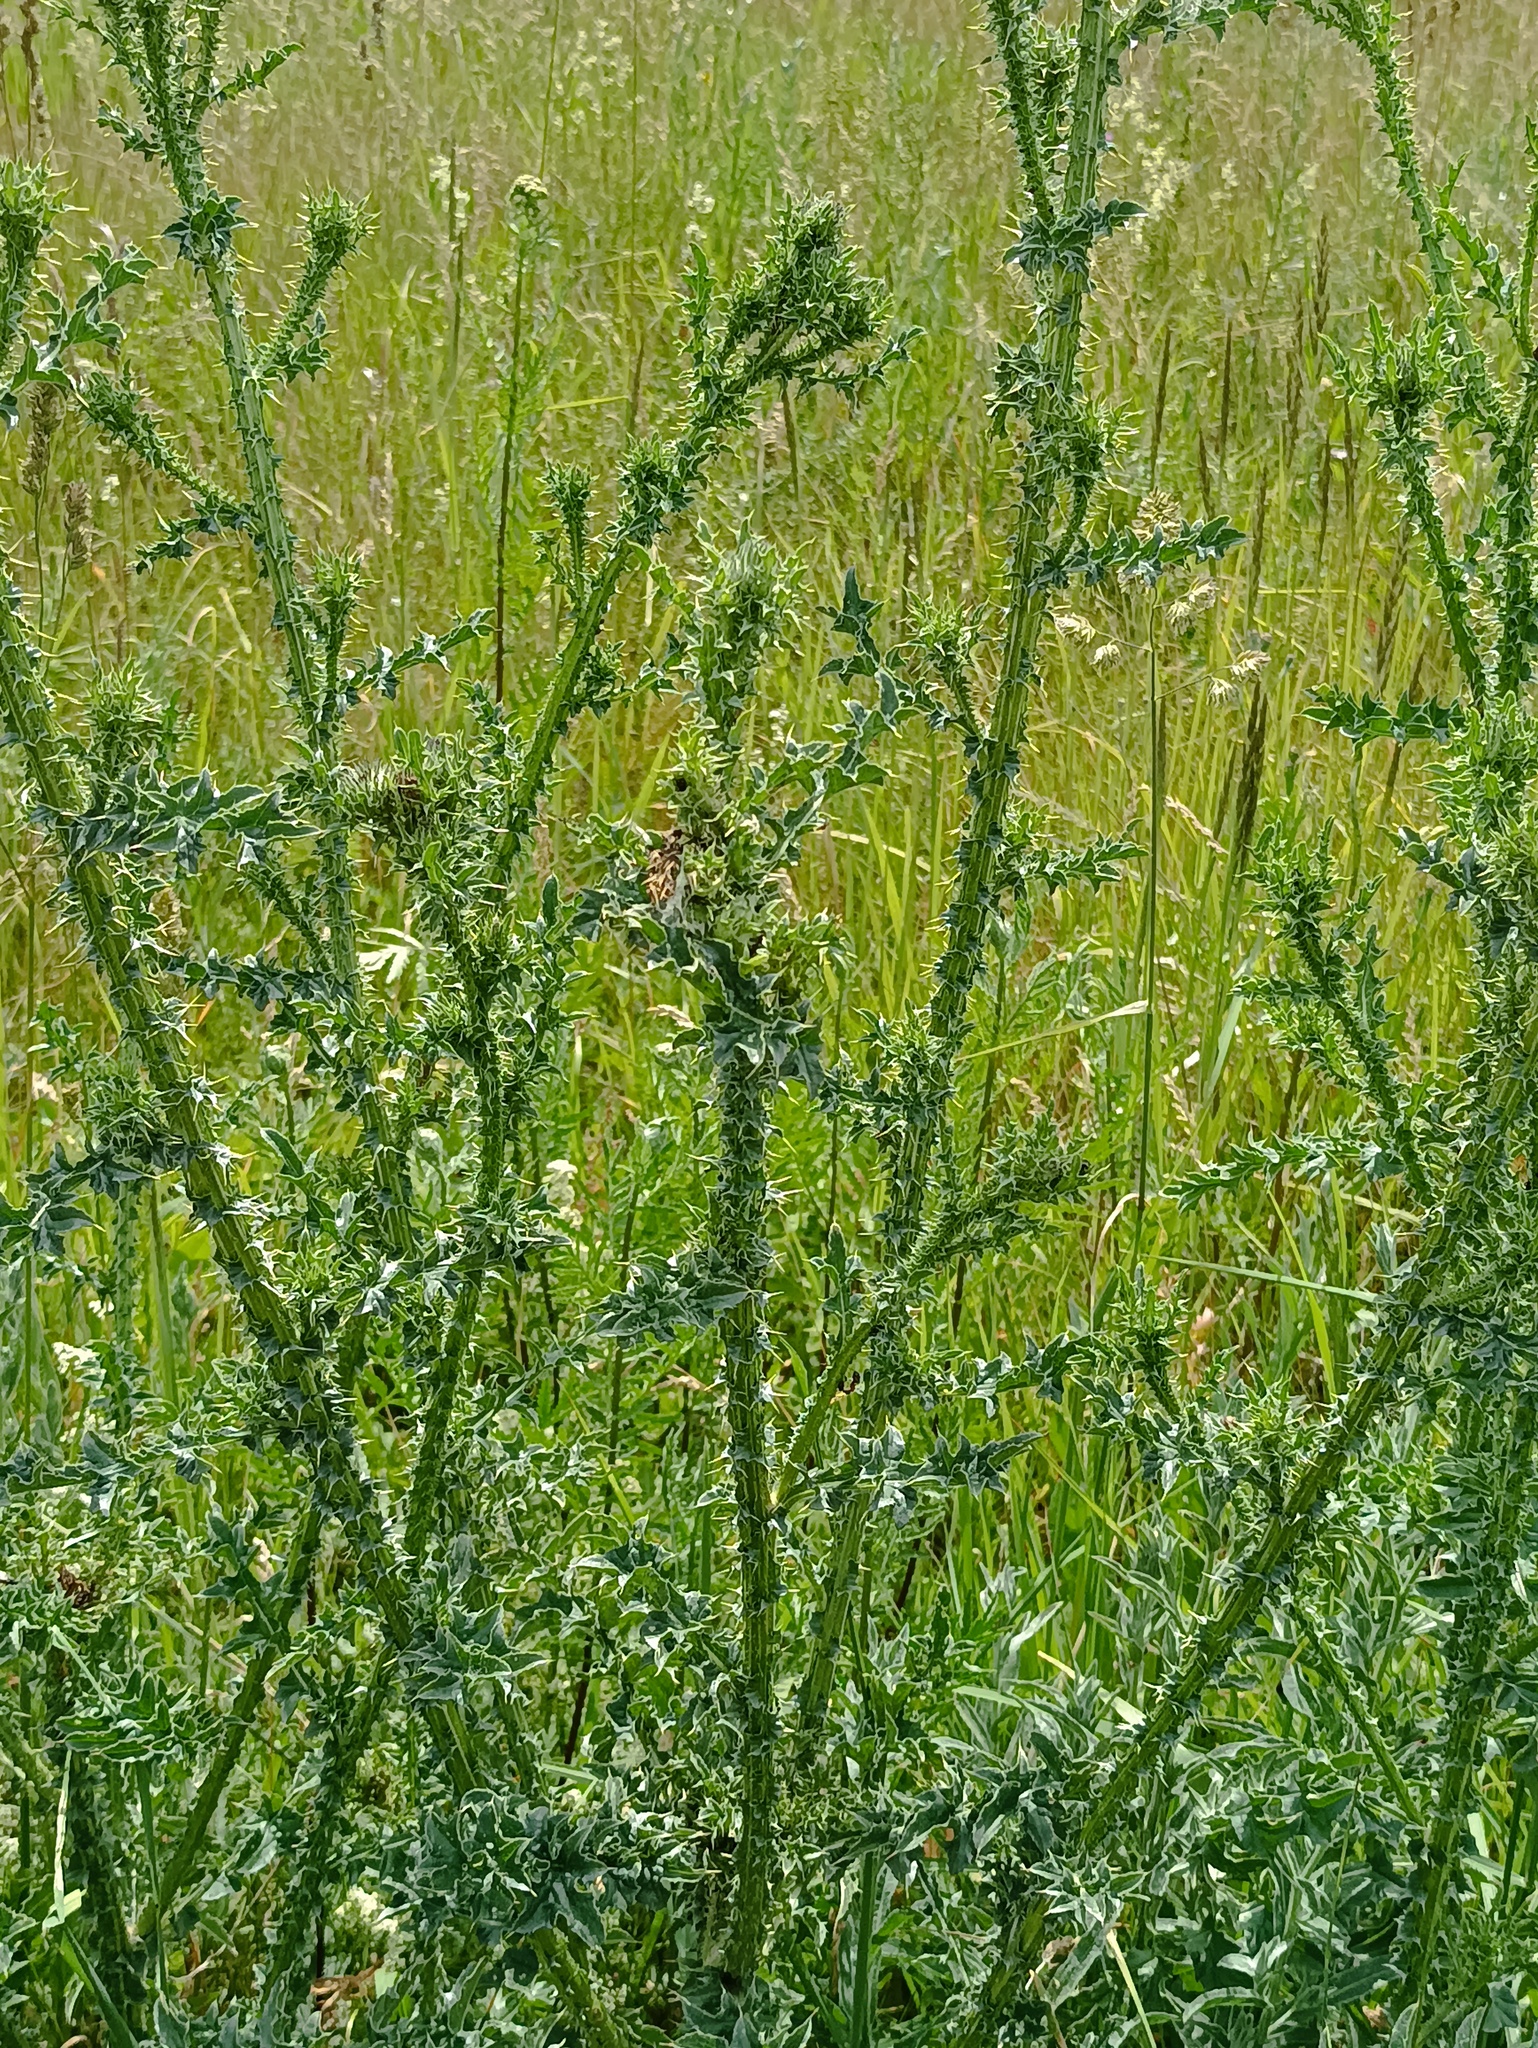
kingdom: Plantae
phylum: Tracheophyta
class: Magnoliopsida
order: Asterales
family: Asteraceae
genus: Carduus
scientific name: Carduus acanthoides
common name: Plumeless thistle
